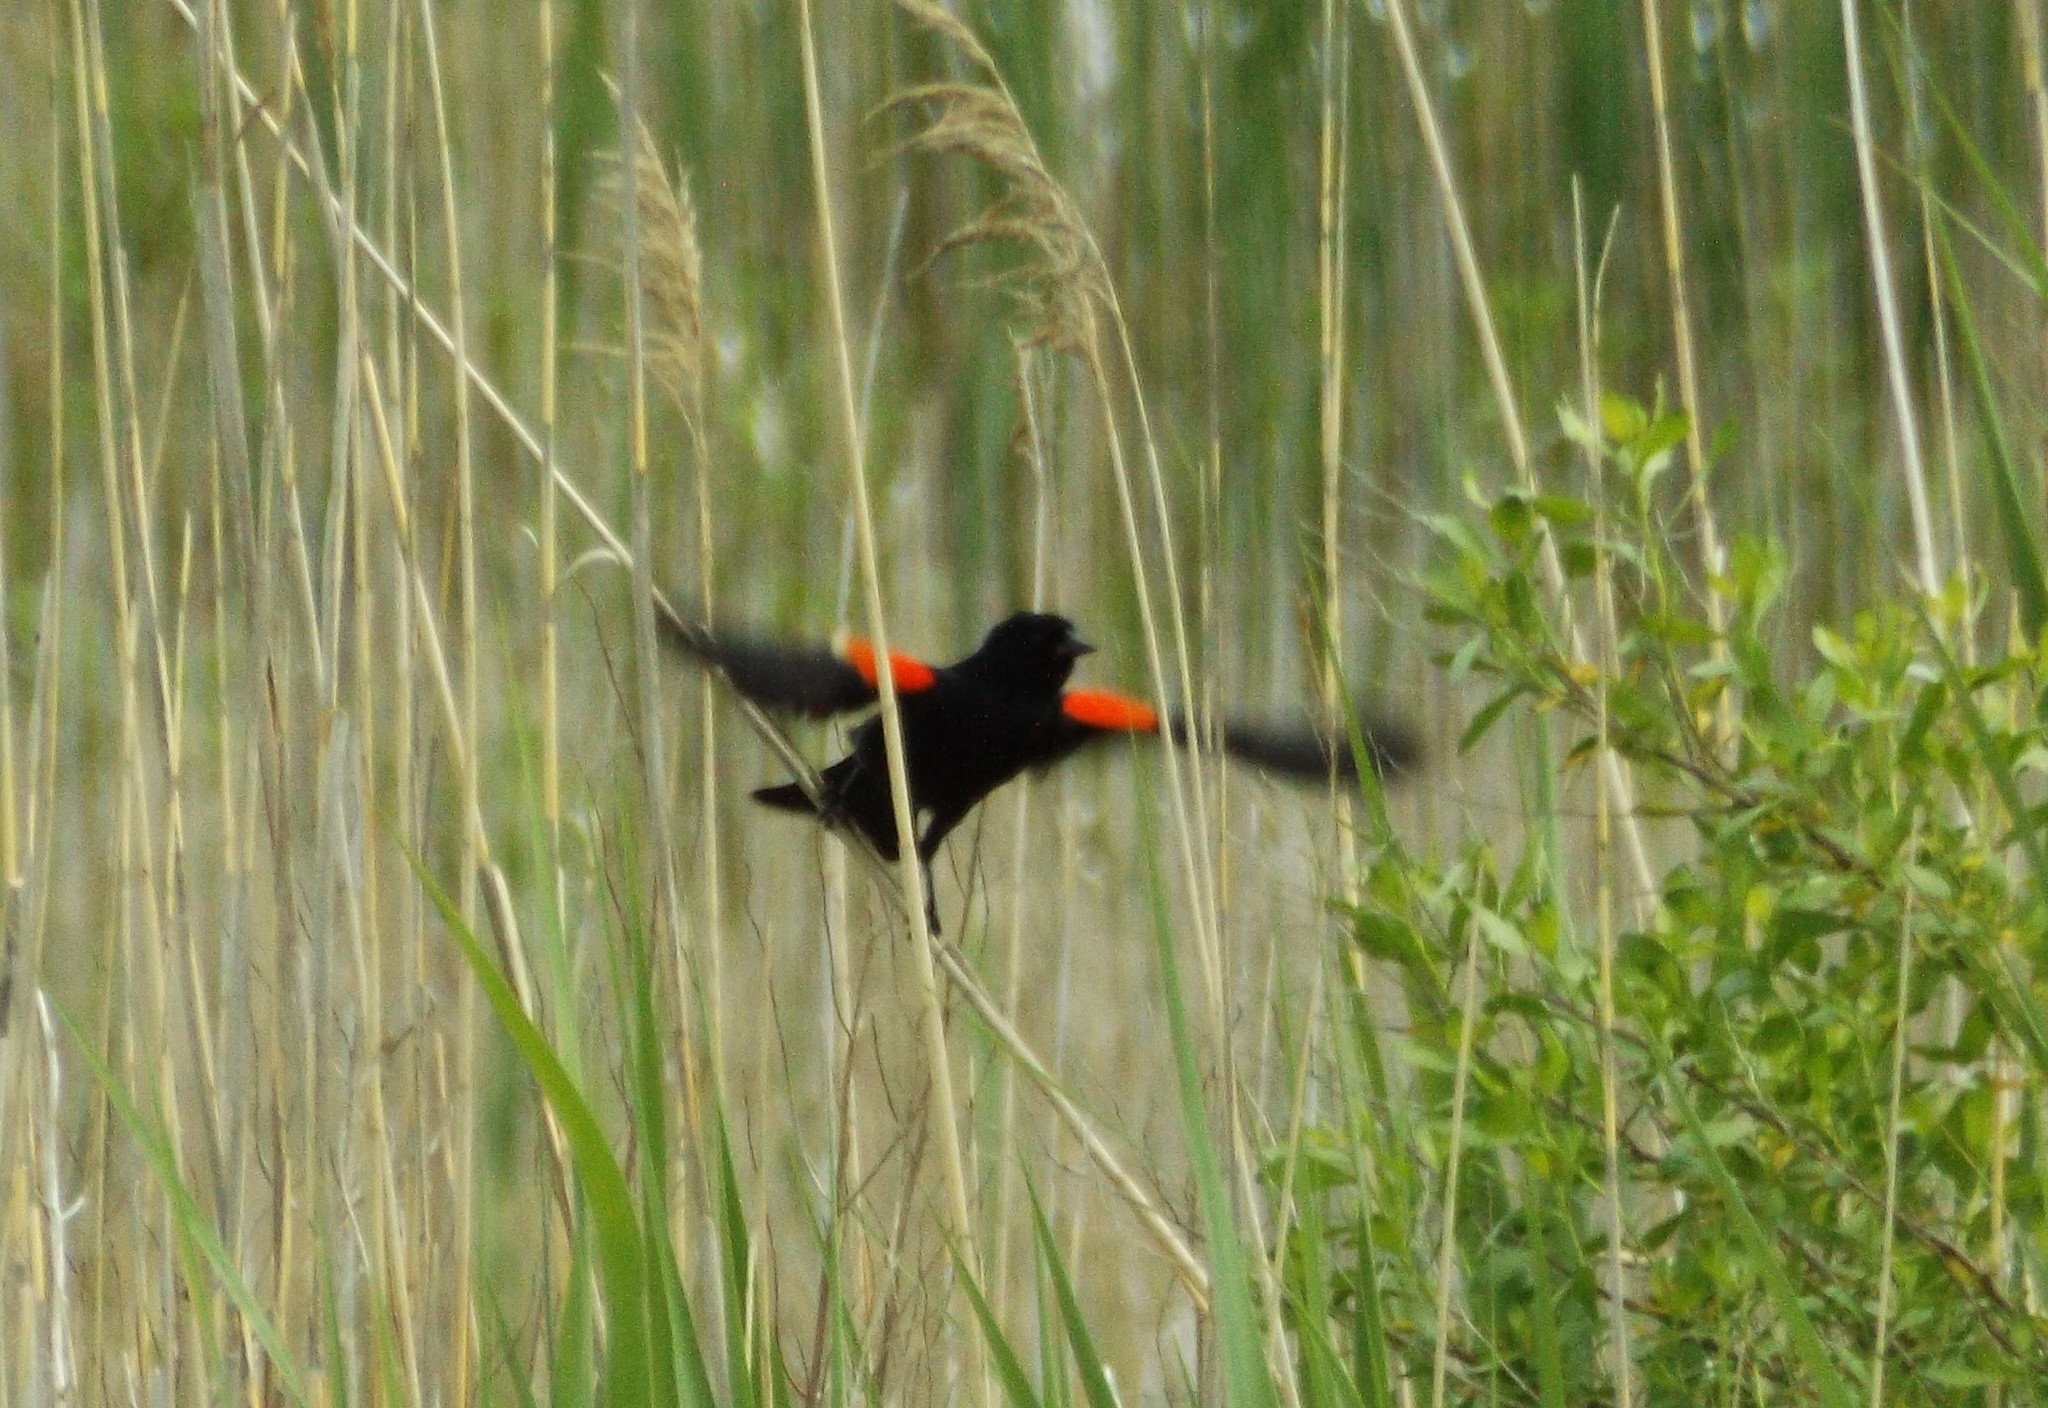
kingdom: Animalia
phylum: Chordata
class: Aves
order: Passeriformes
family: Icteridae
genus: Agelaius
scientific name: Agelaius phoeniceus
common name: Red-winged blackbird
